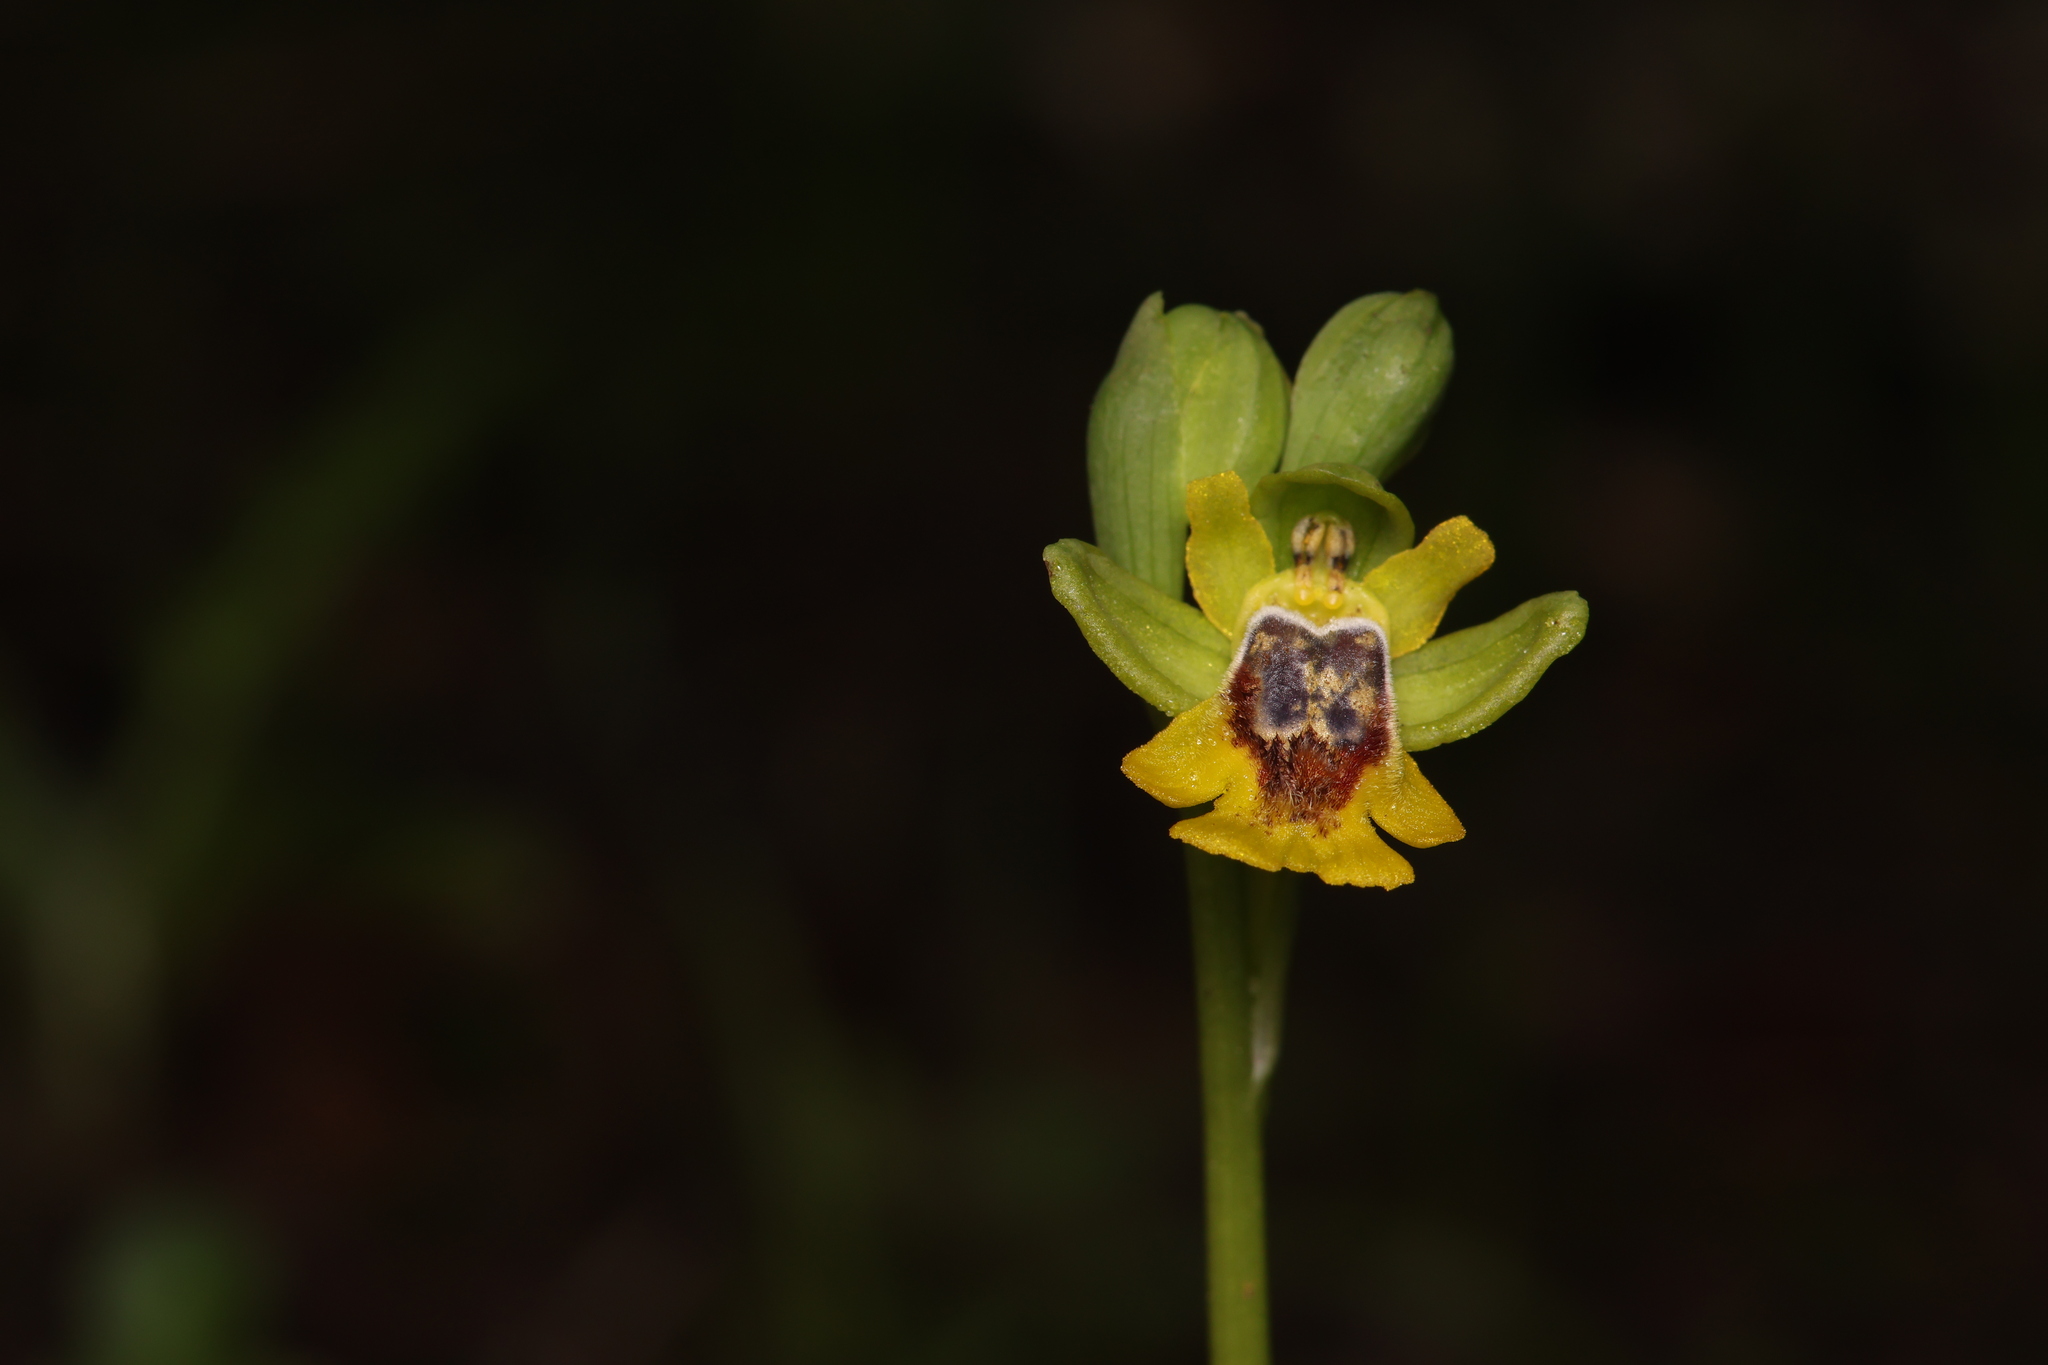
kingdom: Plantae
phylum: Tracheophyta
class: Liliopsida
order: Asparagales
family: Orchidaceae
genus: Ophrys
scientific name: Ophrys lutea
